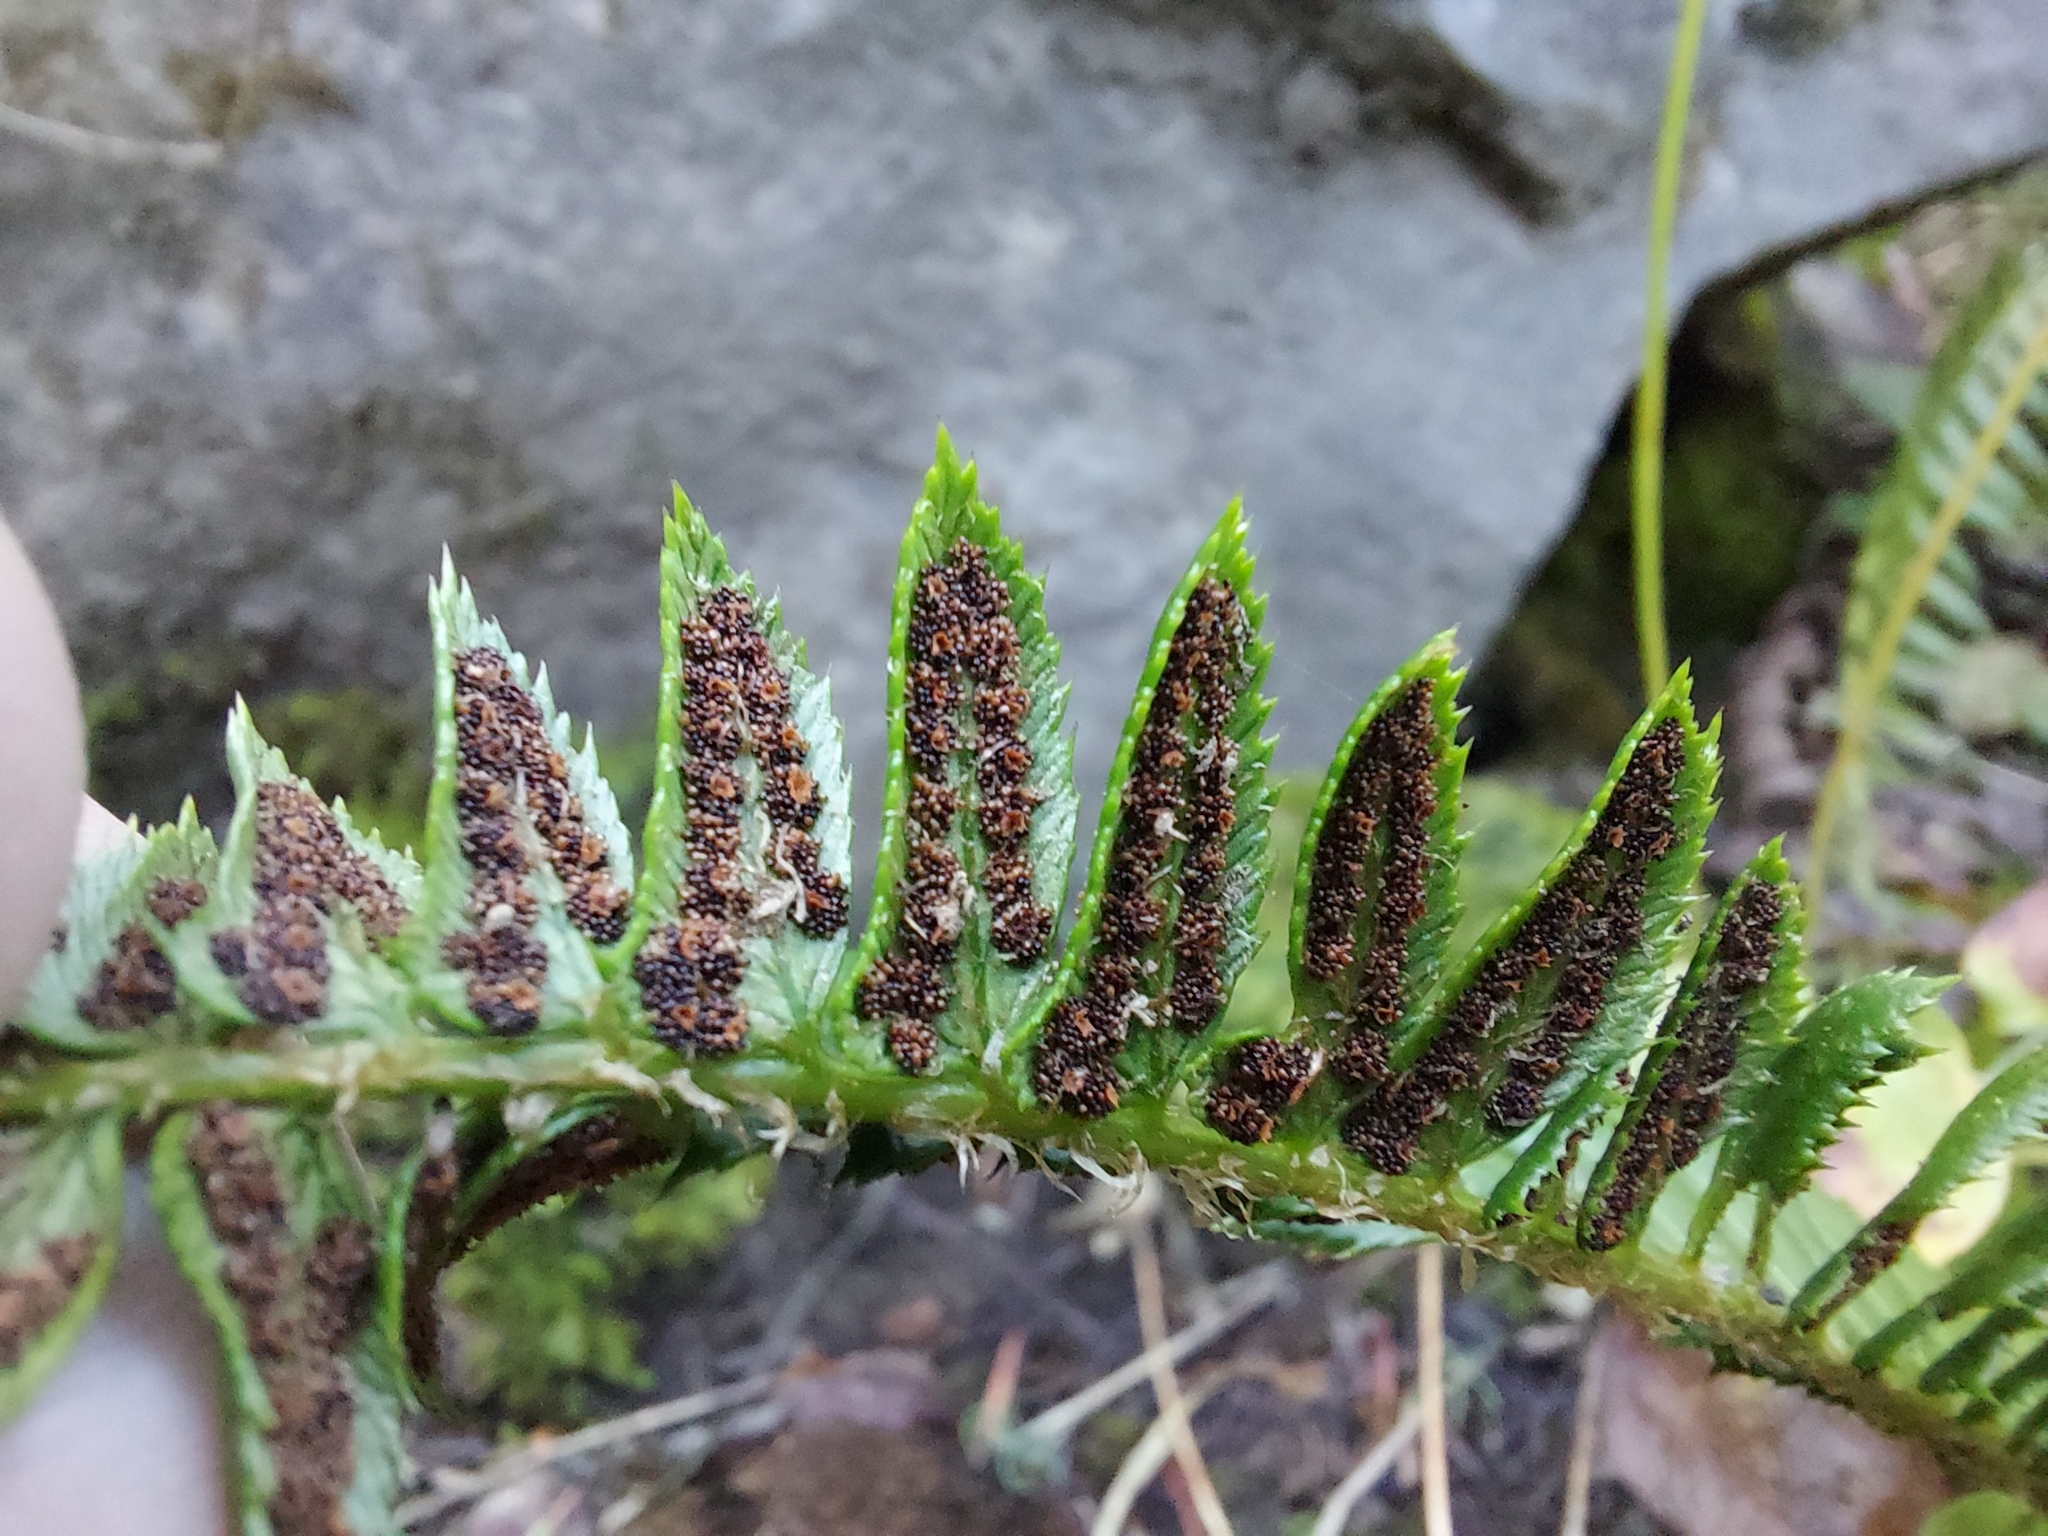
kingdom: Plantae
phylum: Tracheophyta
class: Polypodiopsida
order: Polypodiales
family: Dryopteridaceae
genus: Polystichum
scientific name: Polystichum lonchitis
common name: Holly fern
